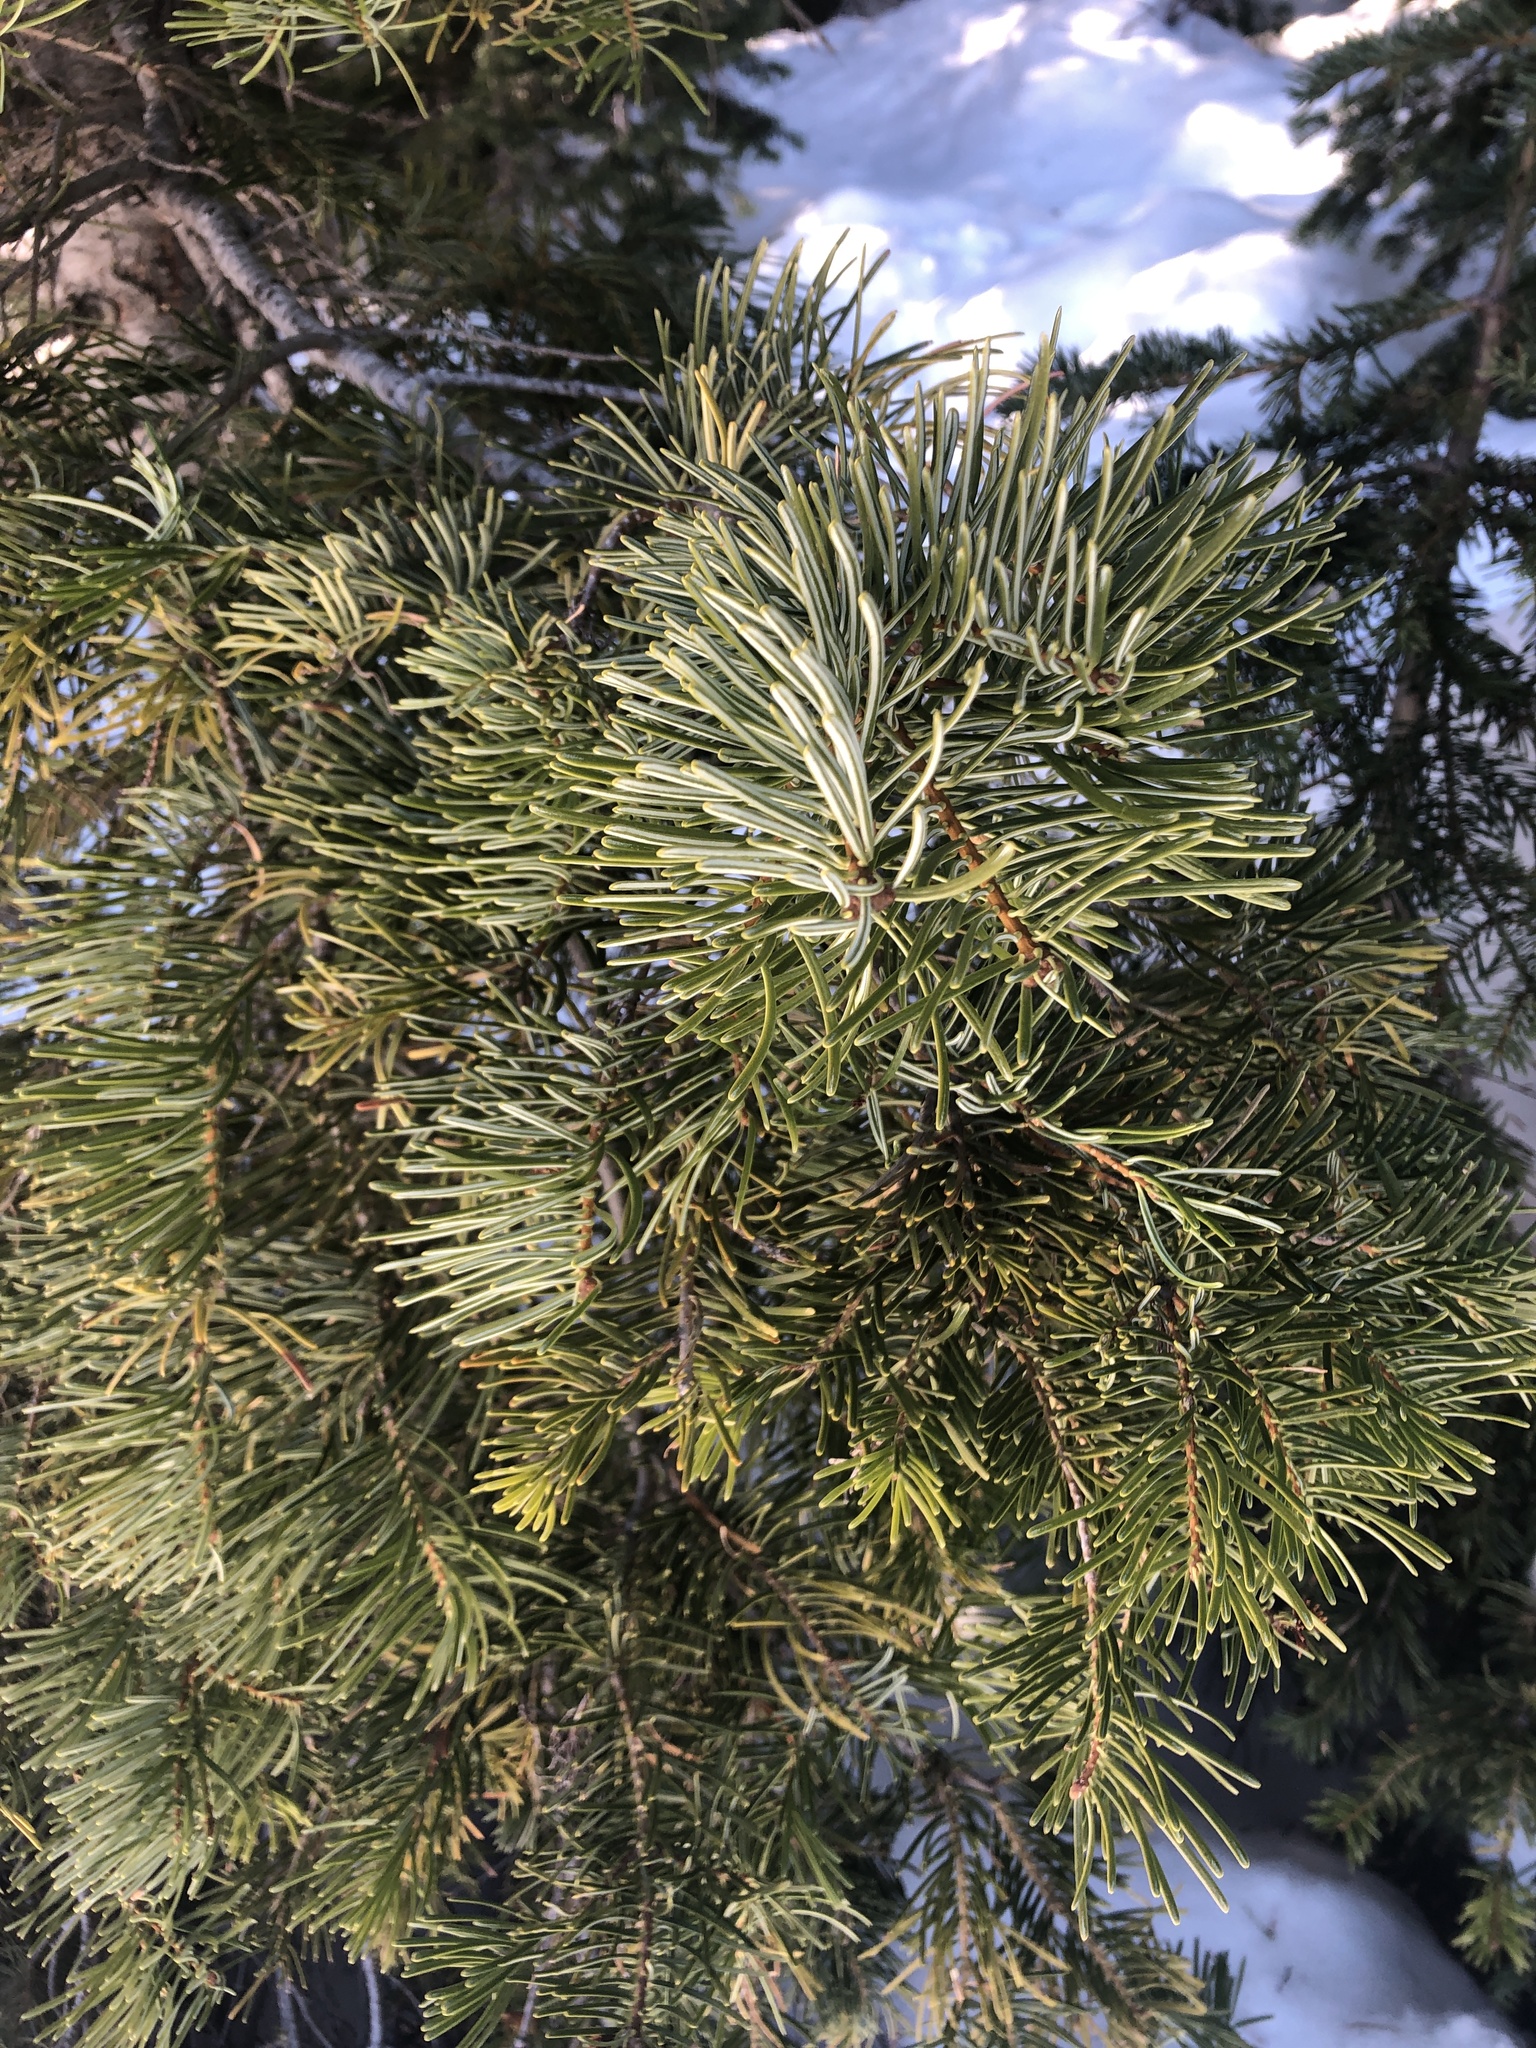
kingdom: Plantae
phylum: Tracheophyta
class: Pinopsida
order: Pinales
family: Pinaceae
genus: Abies
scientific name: Abies concolor
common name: Colorado fir
